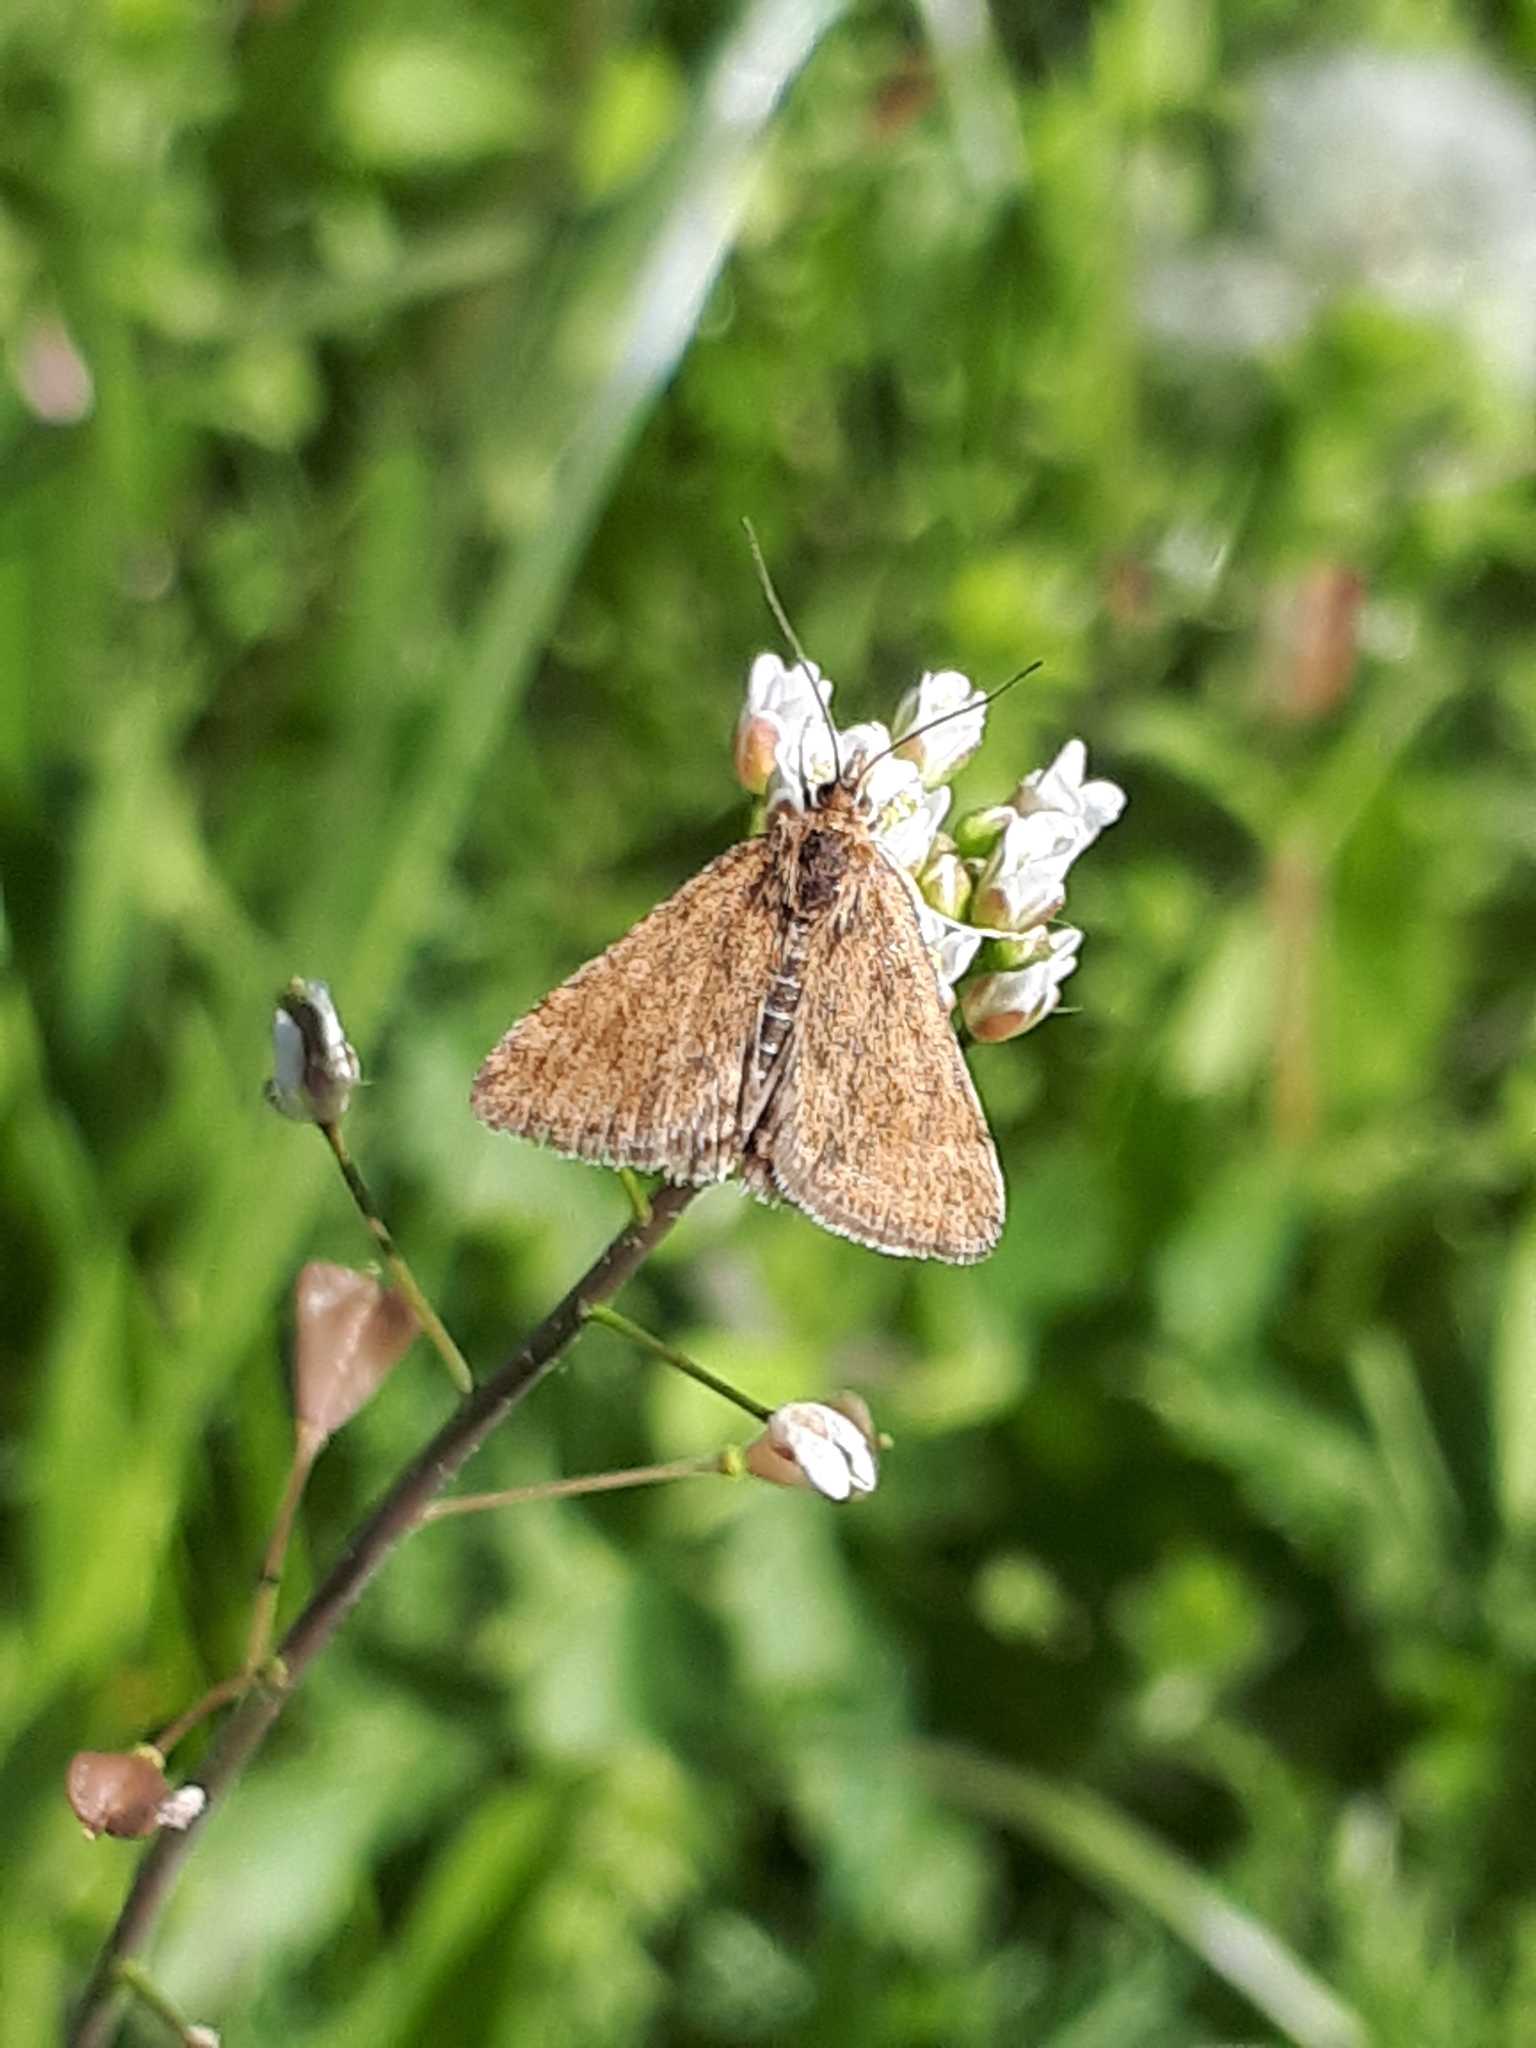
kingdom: Animalia
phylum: Arthropoda
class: Insecta
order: Lepidoptera
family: Crambidae
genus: Pyrausta
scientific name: Pyrausta despicata
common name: Straw-barred pearl
